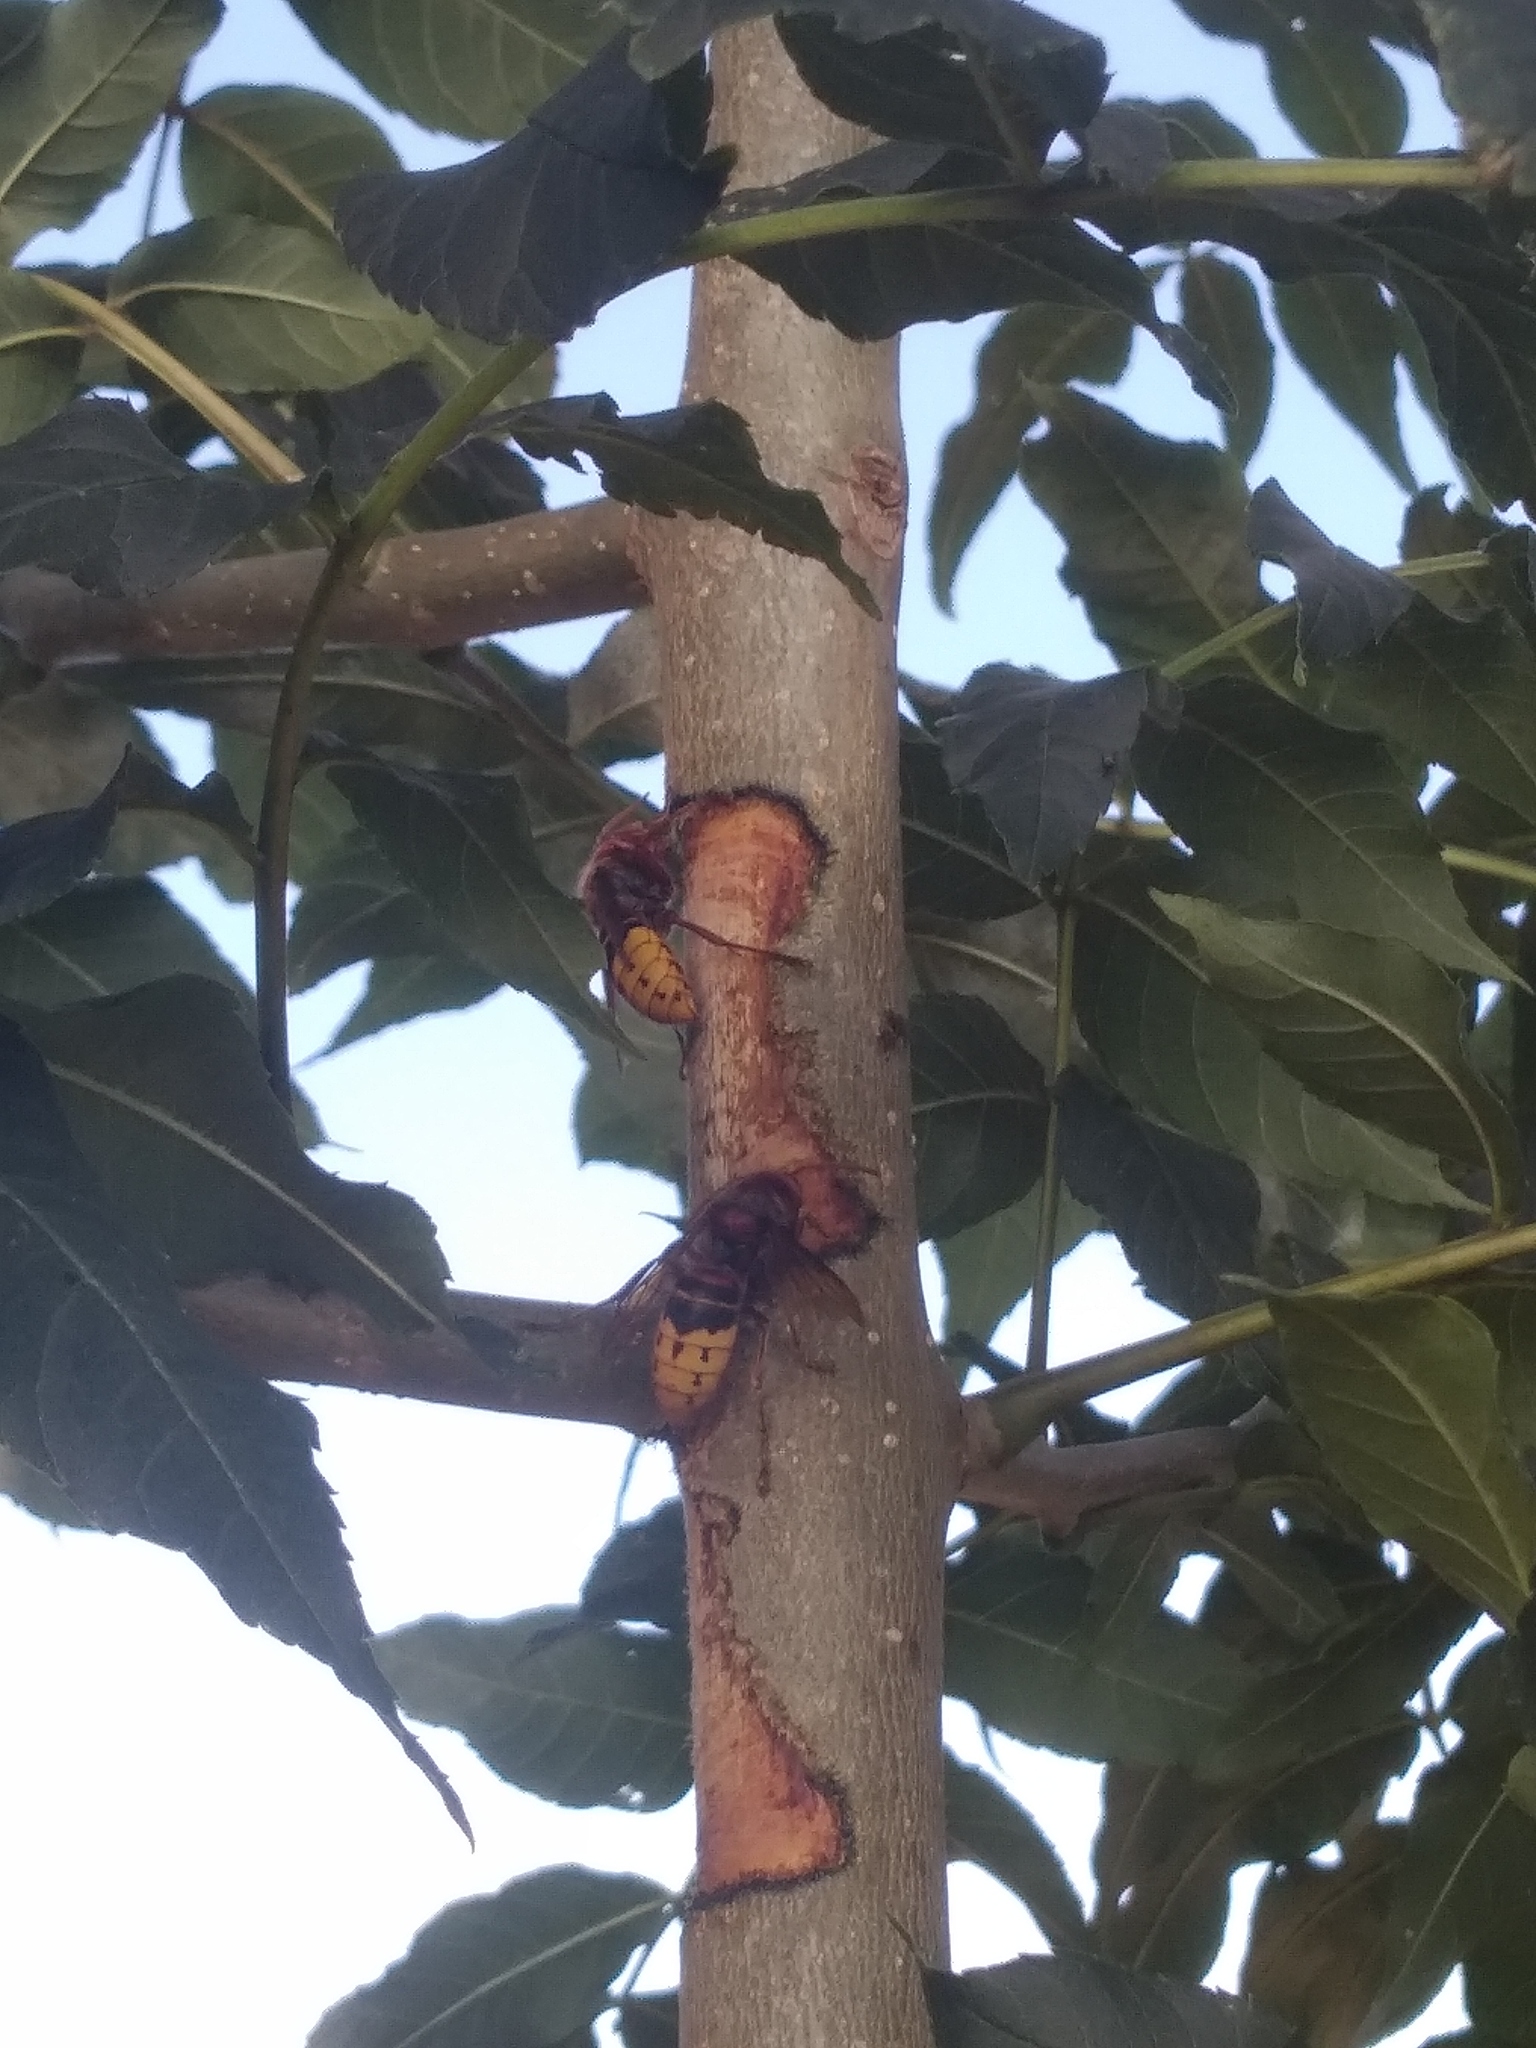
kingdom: Animalia
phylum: Arthropoda
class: Insecta
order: Hymenoptera
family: Vespidae
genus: Vespa
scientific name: Vespa crabro
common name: Hornet
